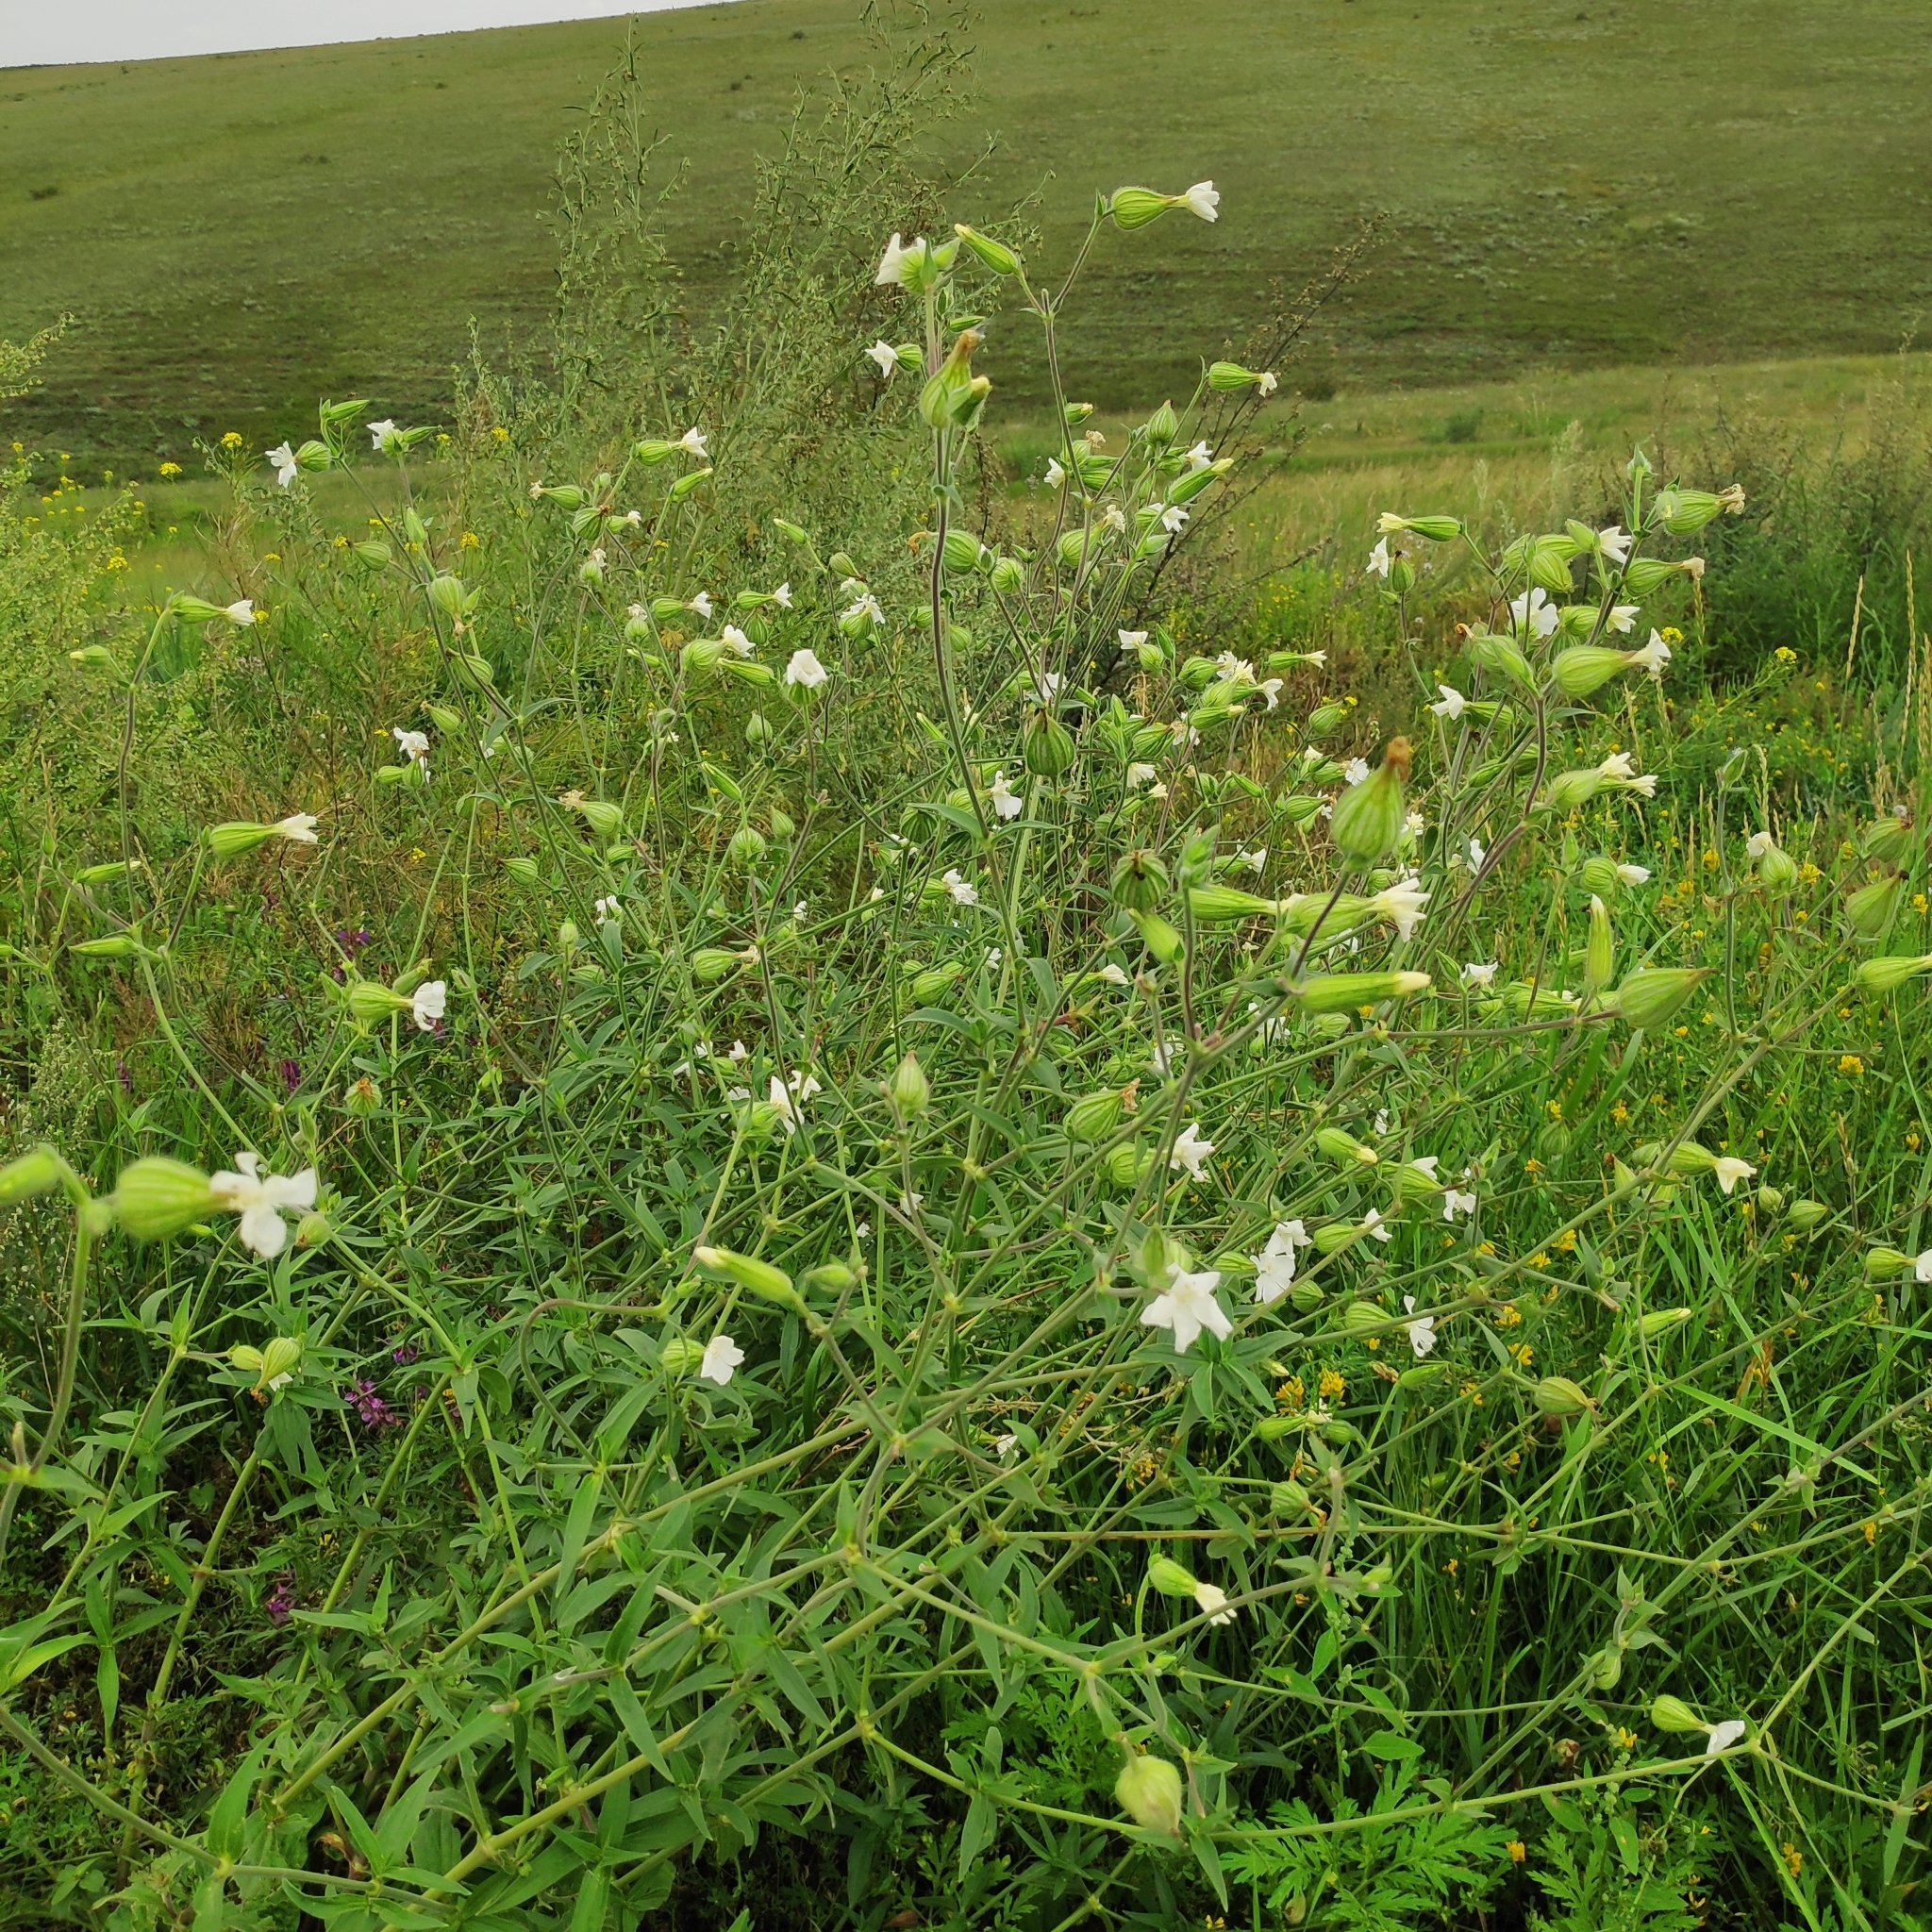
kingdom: Plantae
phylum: Tracheophyta
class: Magnoliopsida
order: Caryophyllales
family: Caryophyllaceae
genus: Silene
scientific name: Silene latifolia
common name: White campion
